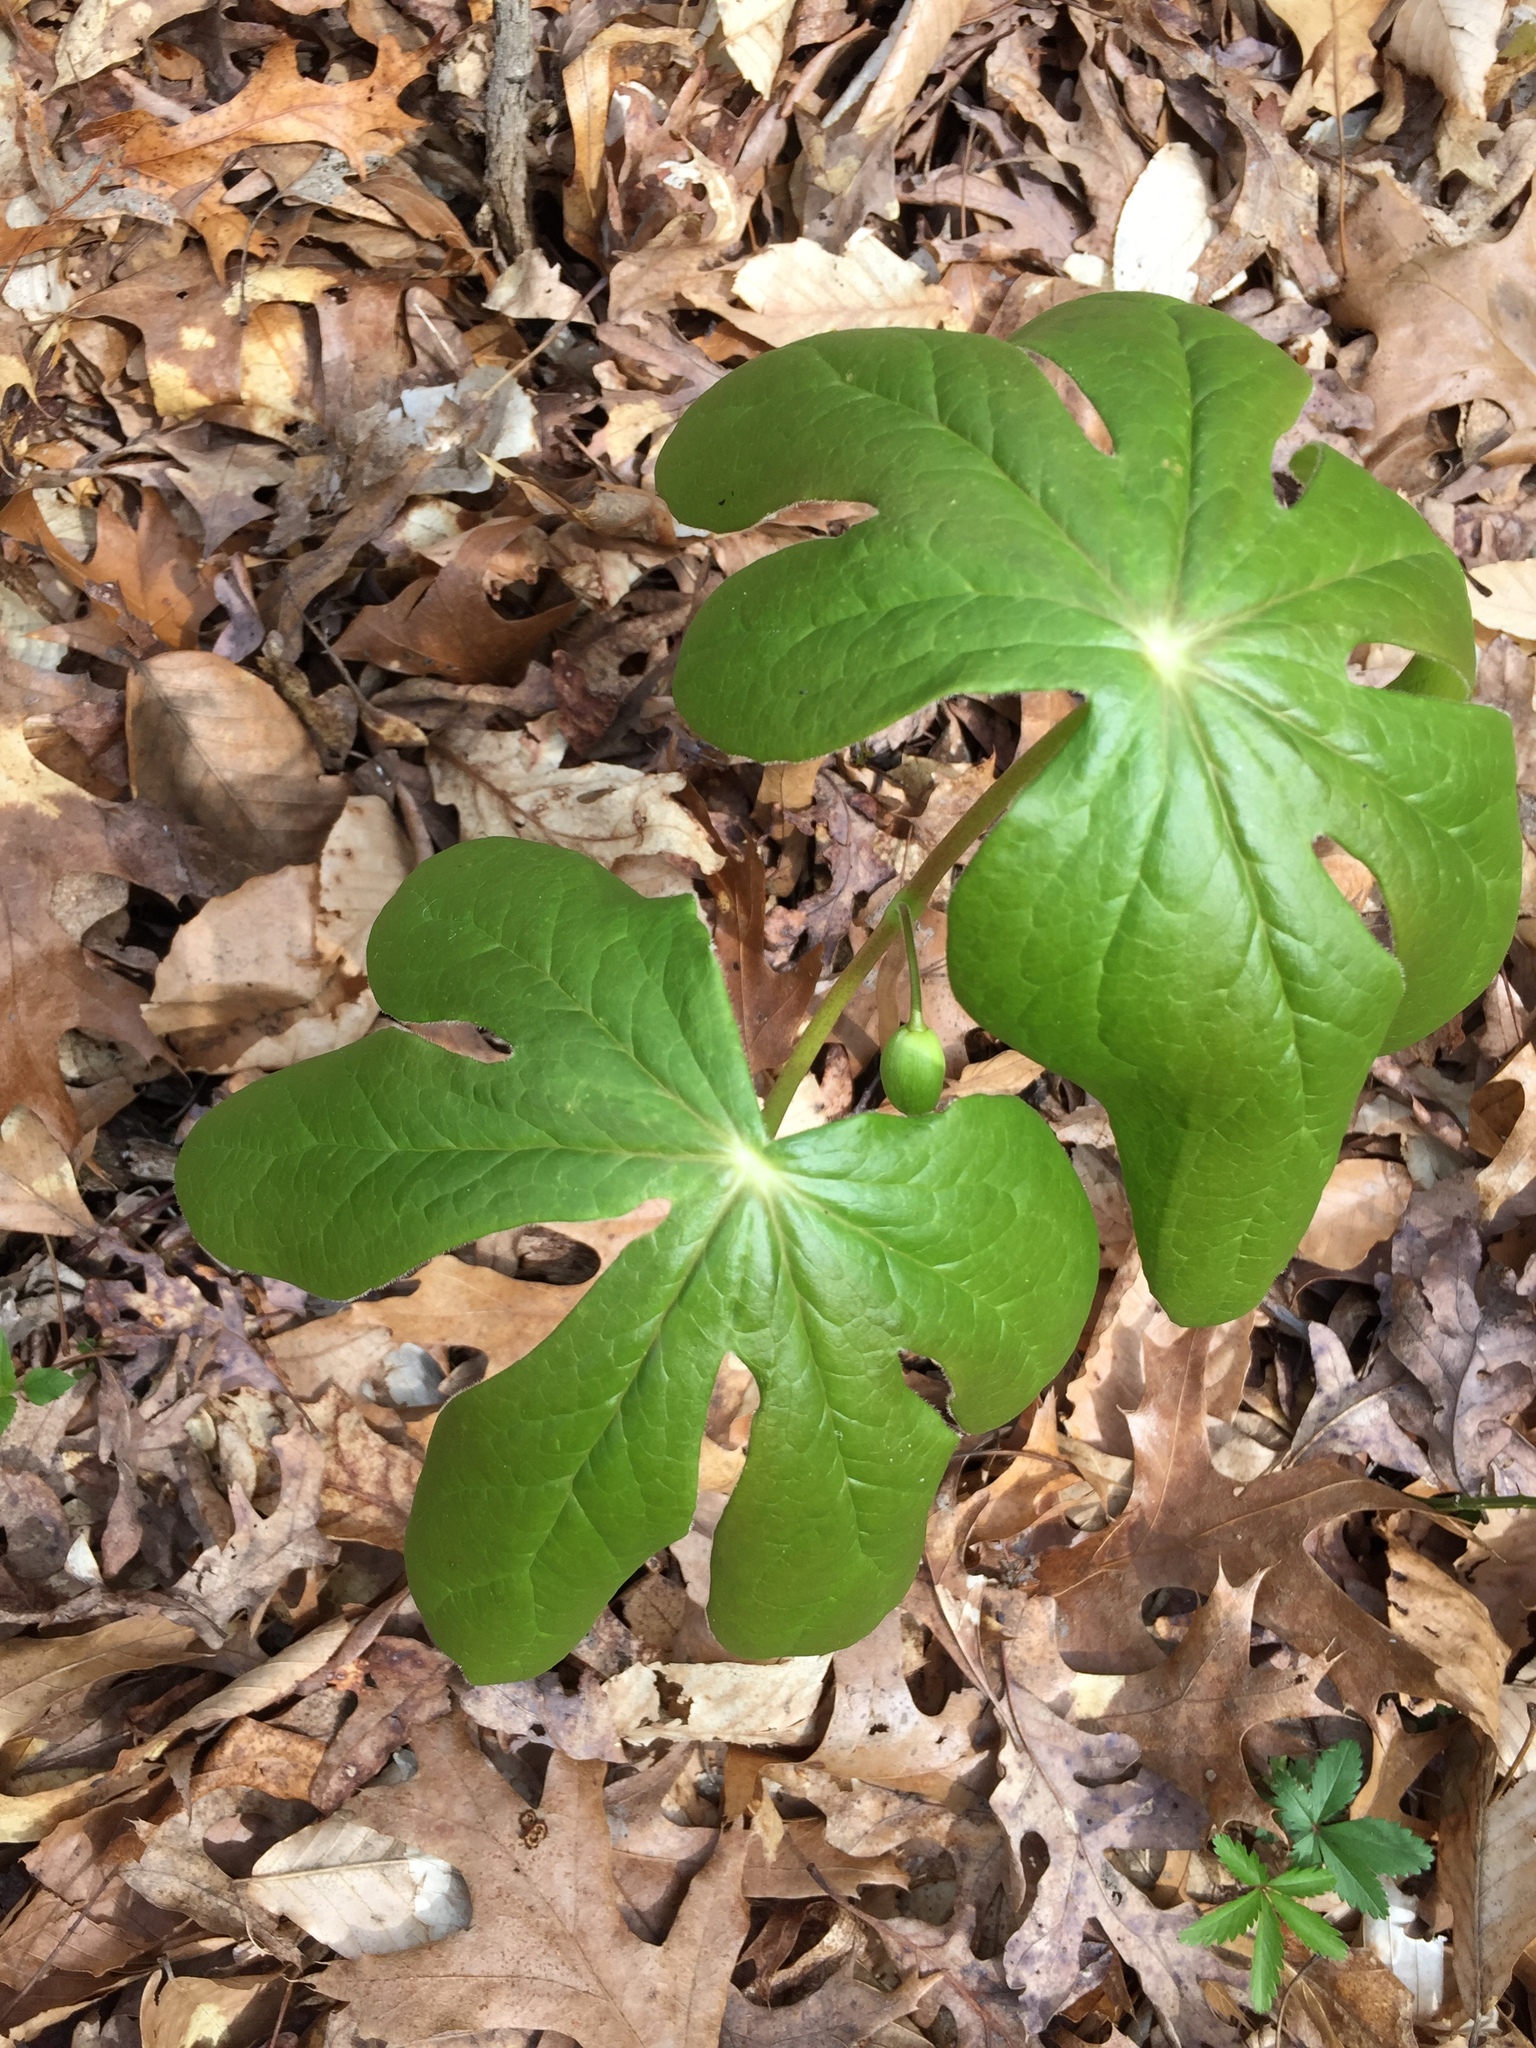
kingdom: Plantae
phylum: Tracheophyta
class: Magnoliopsida
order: Ranunculales
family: Berberidaceae
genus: Podophyllum
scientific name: Podophyllum peltatum
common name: Wild mandrake
